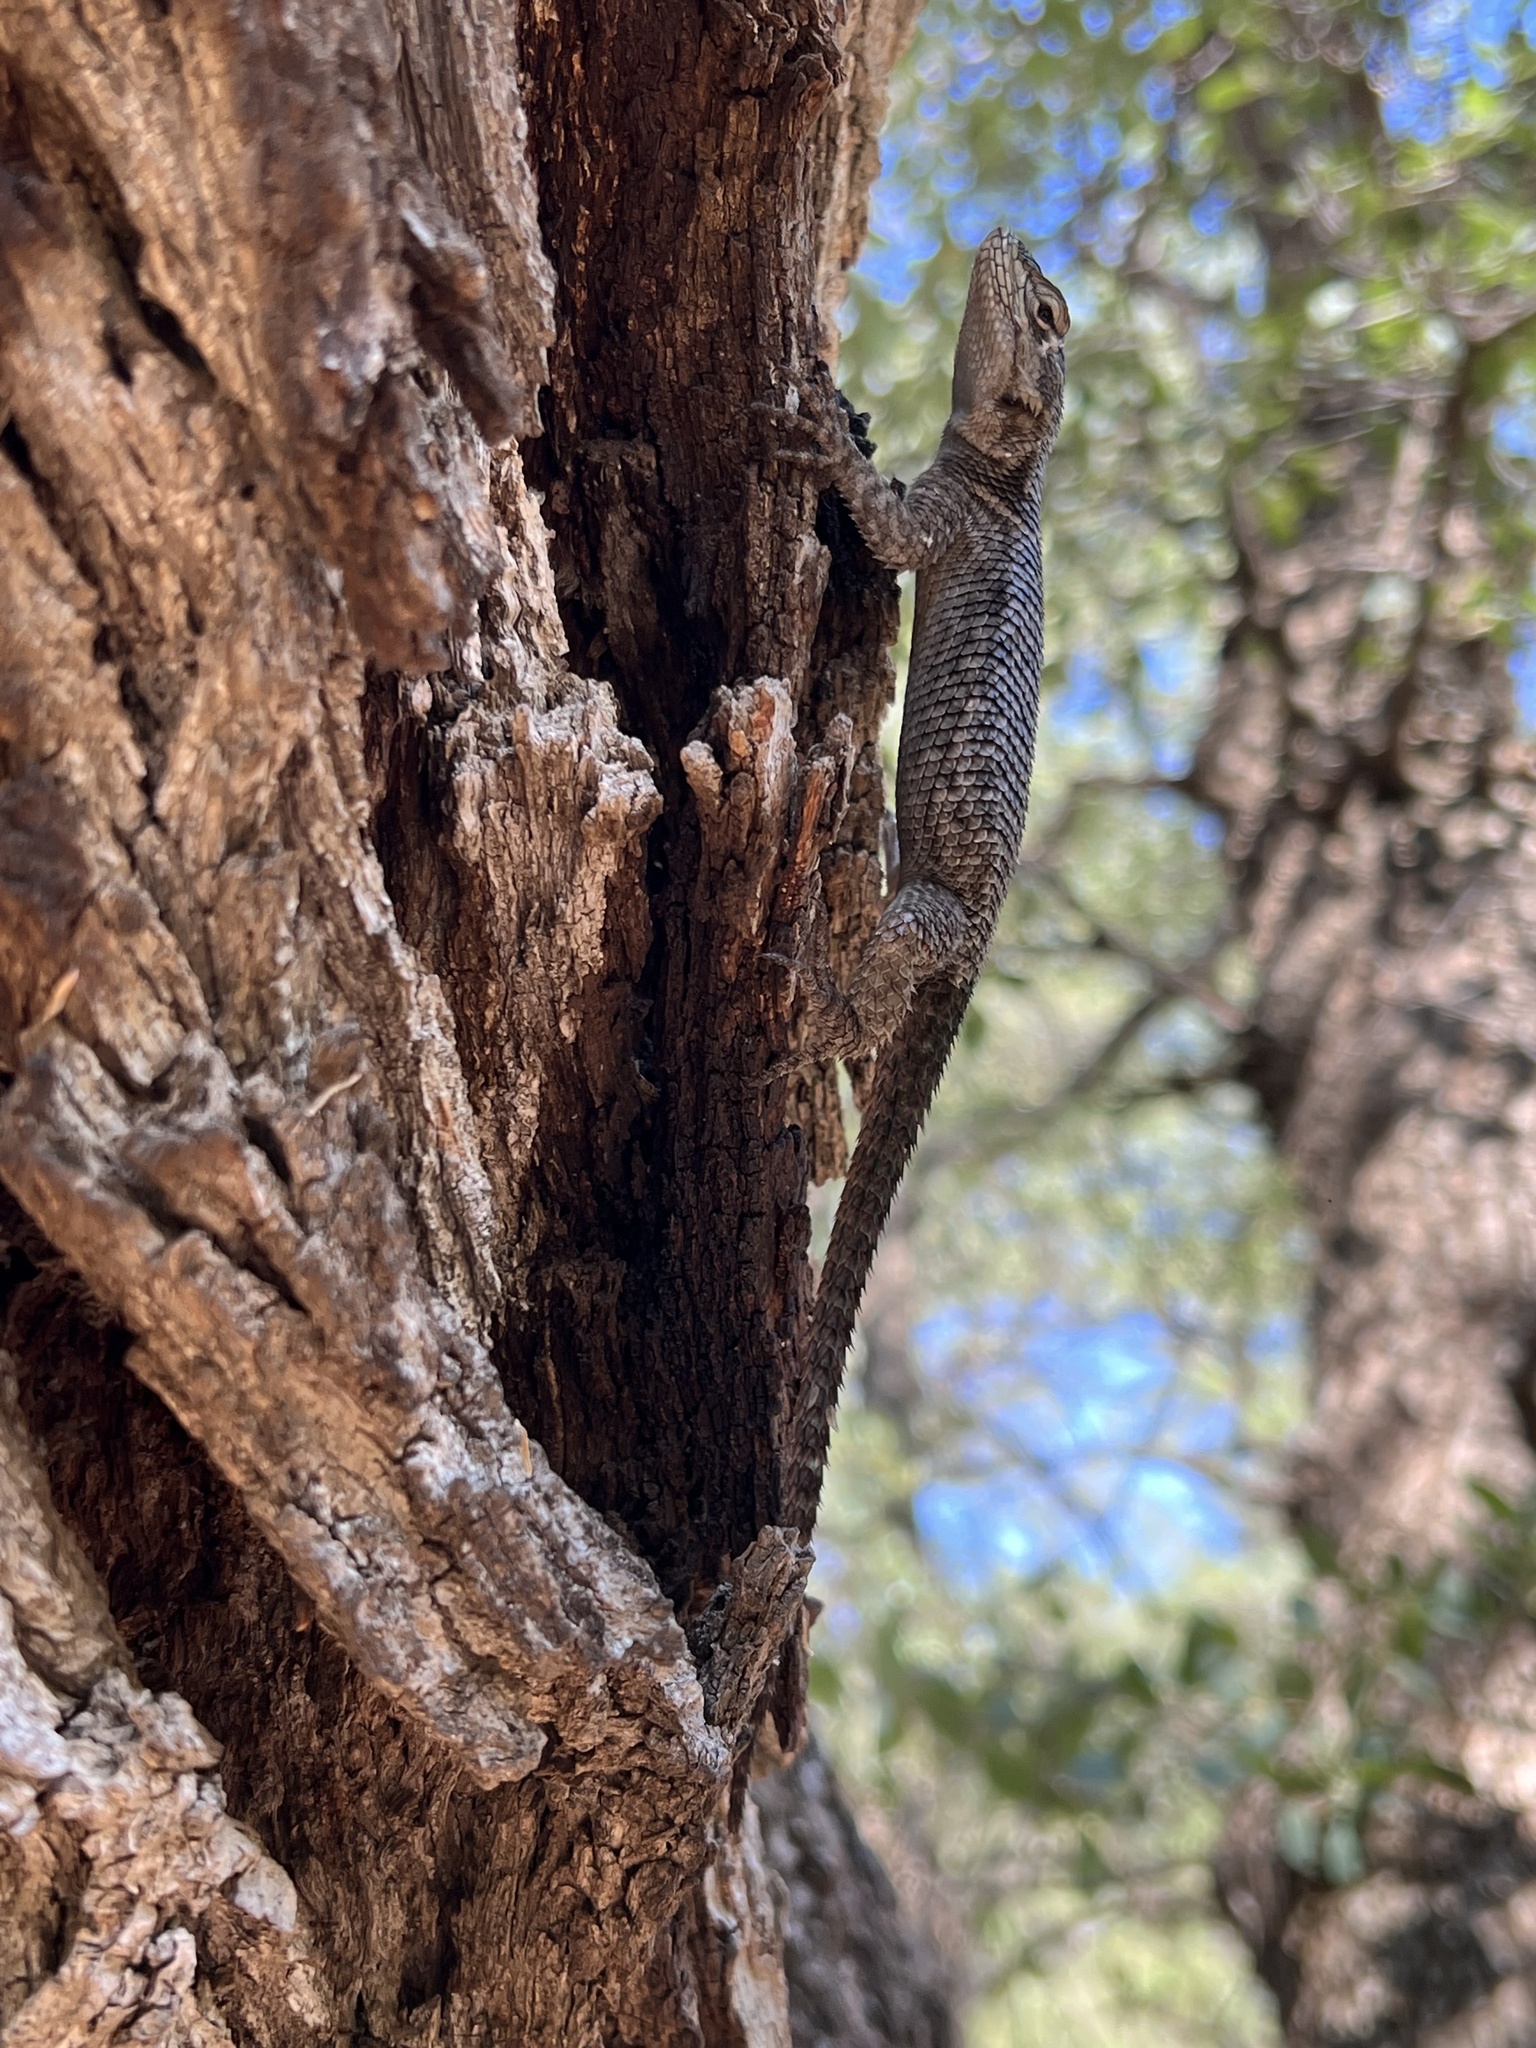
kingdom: Animalia
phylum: Chordata
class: Squamata
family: Phrynosomatidae
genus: Sceloporus
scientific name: Sceloporus jarrovii
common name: Yarrow's spiny lizard
